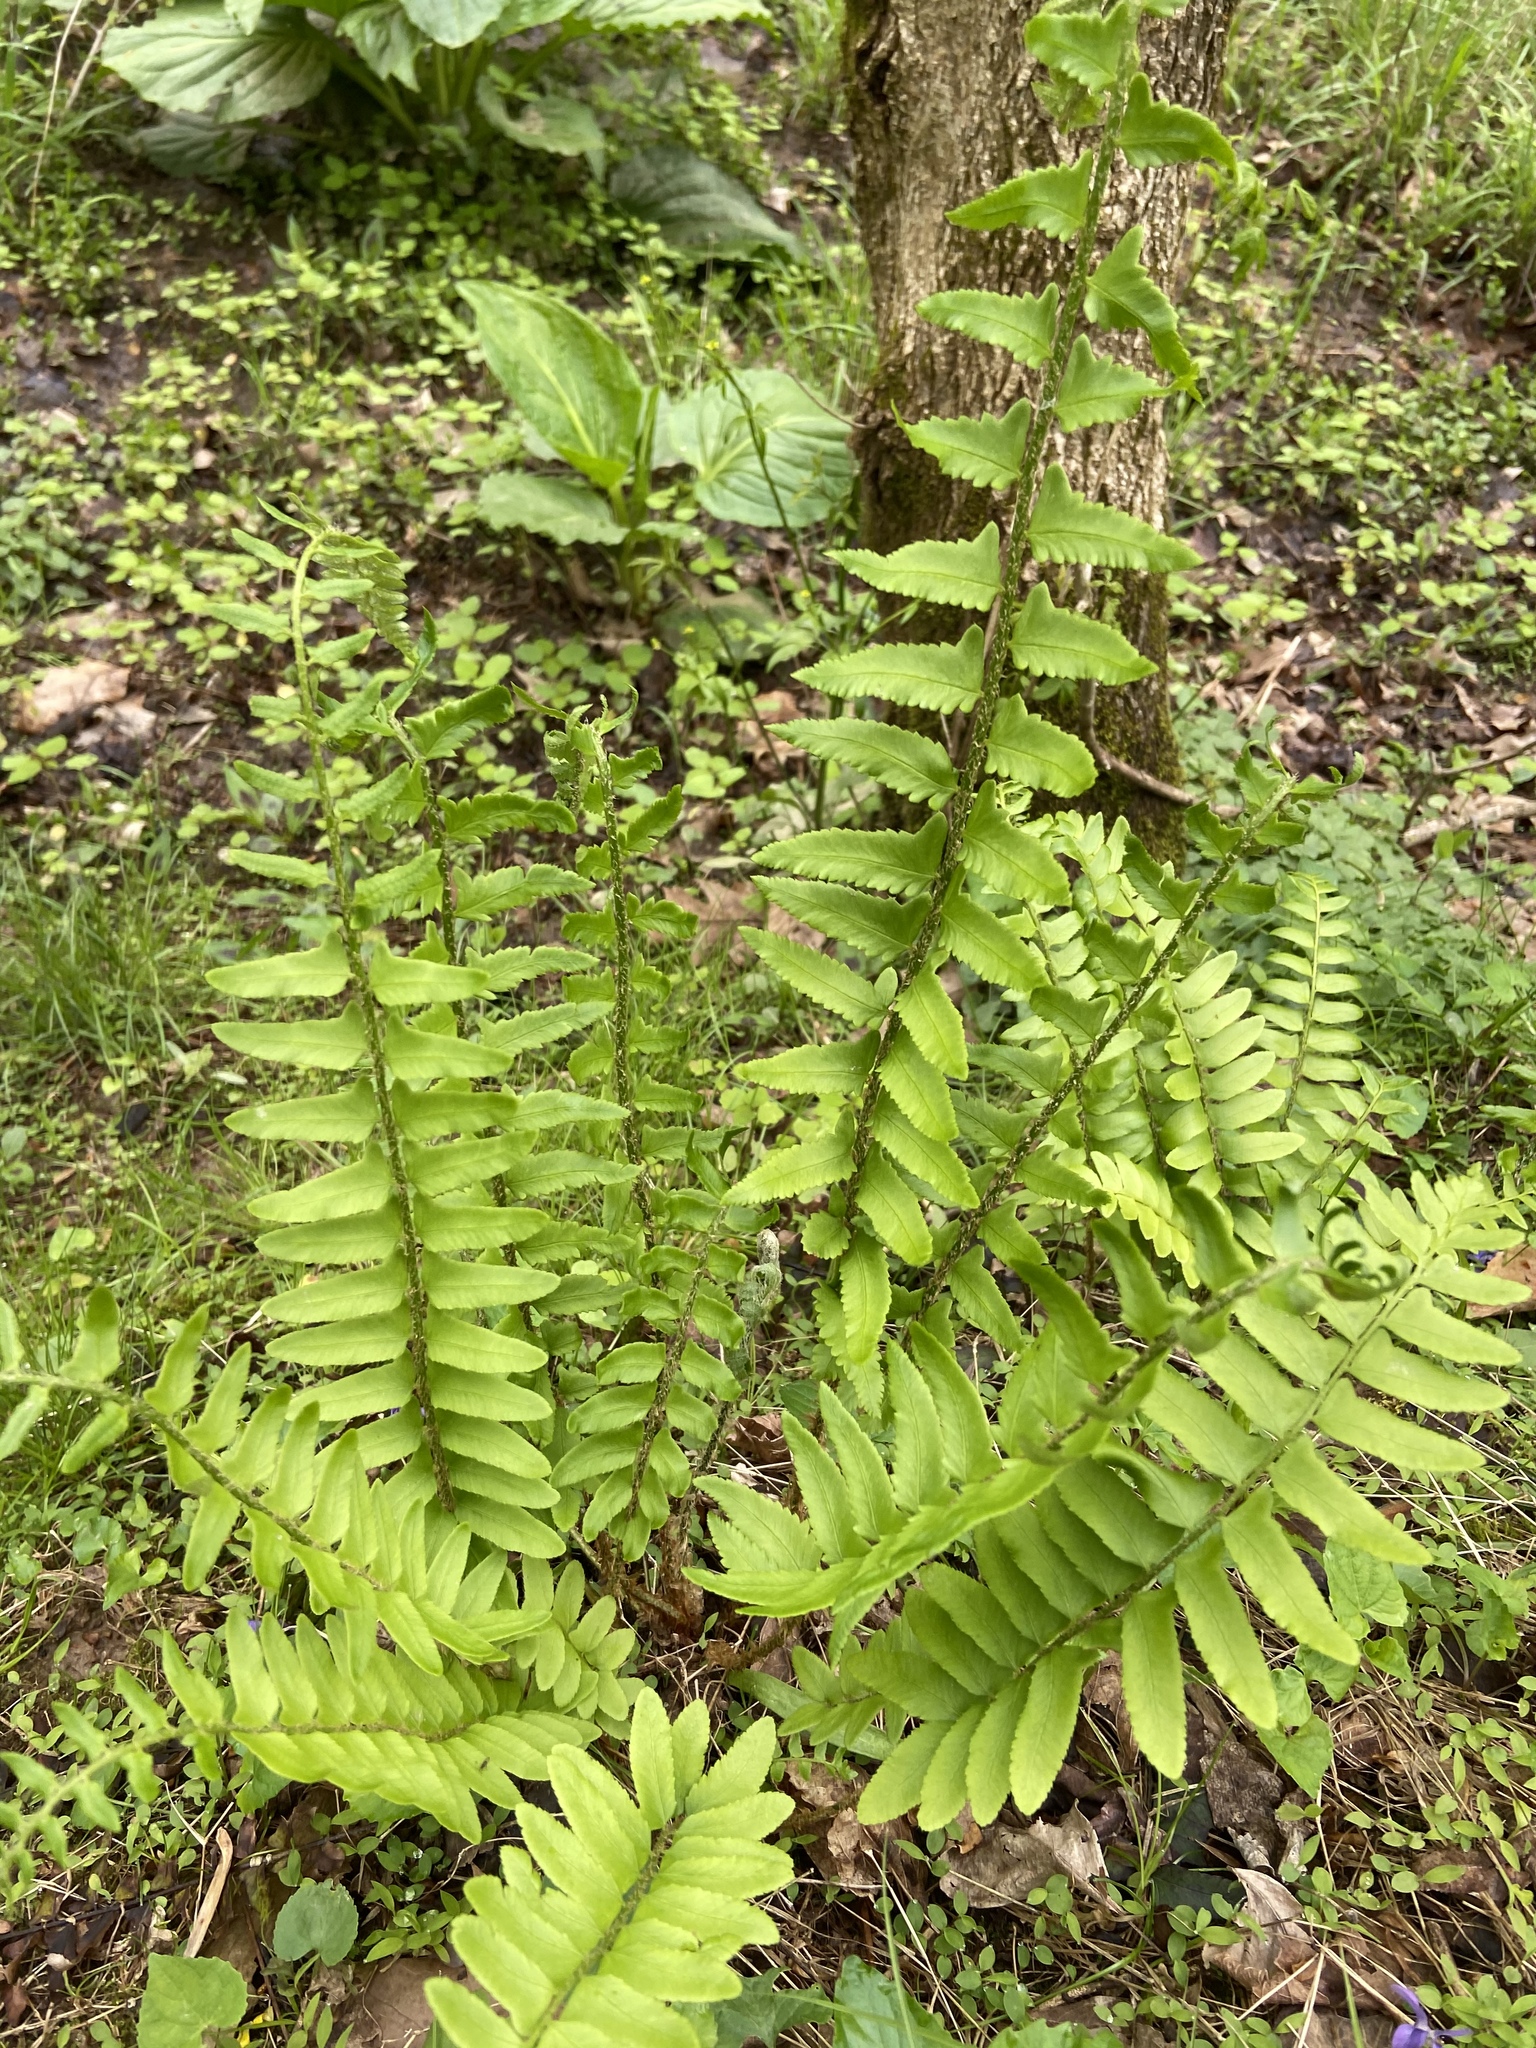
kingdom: Plantae
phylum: Tracheophyta
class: Polypodiopsida
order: Polypodiales
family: Dryopteridaceae
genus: Polystichum
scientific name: Polystichum acrostichoides
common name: Christmas fern
